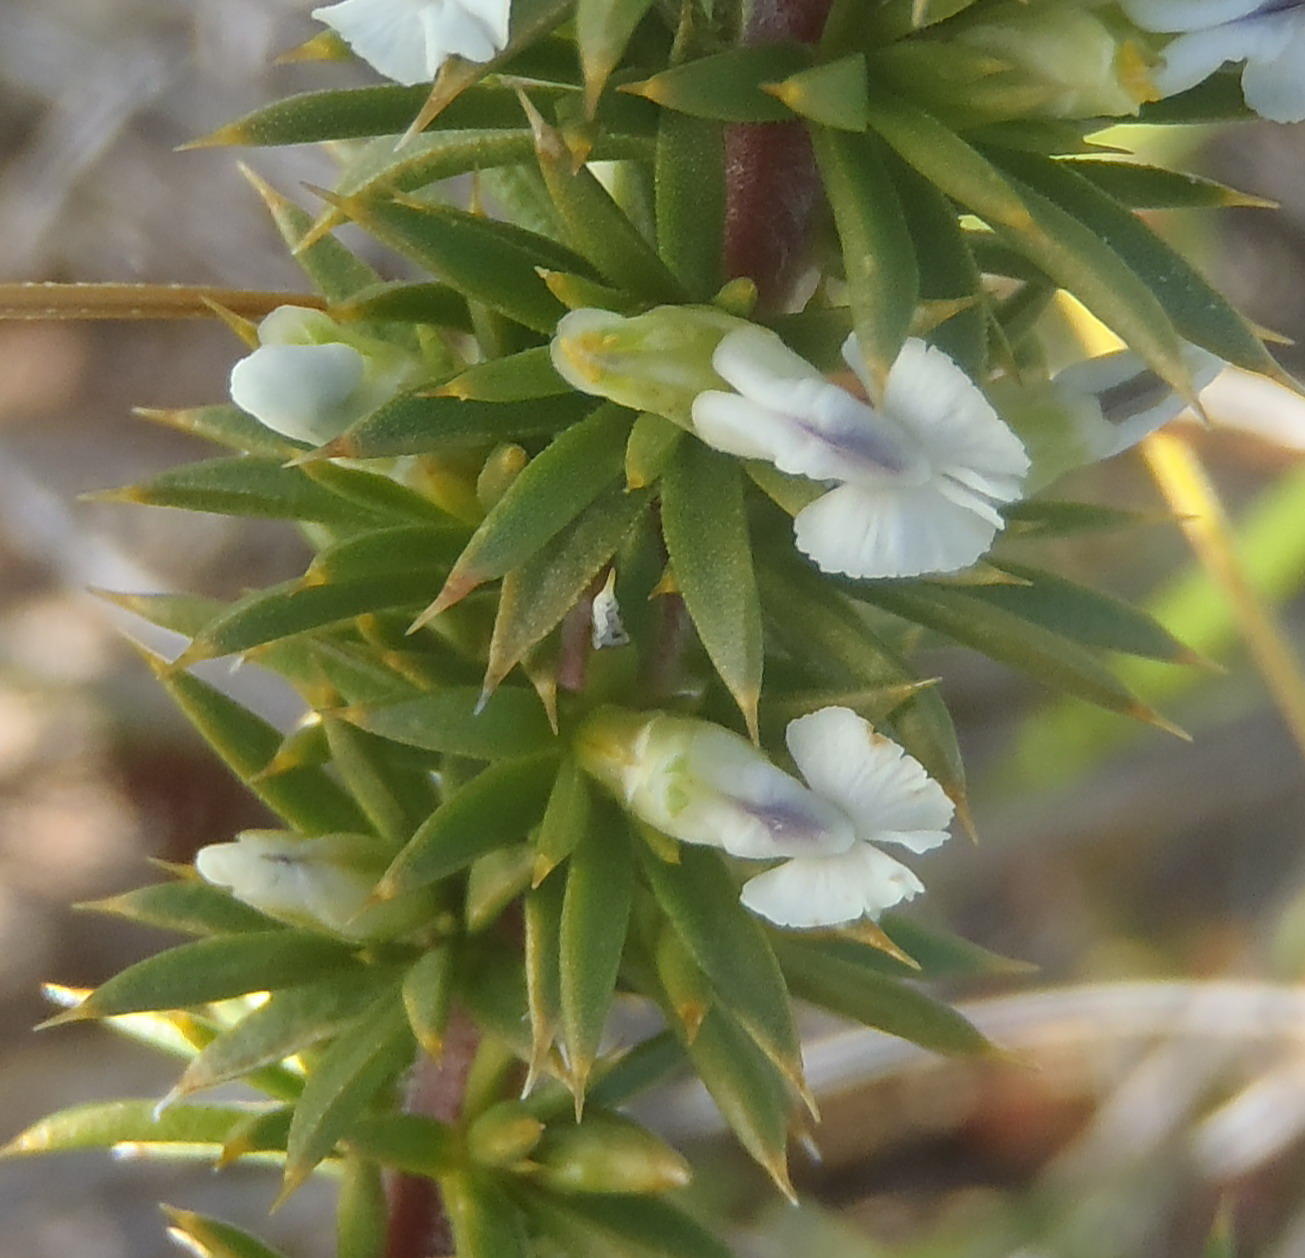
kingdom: Plantae
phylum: Tracheophyta
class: Magnoliopsida
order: Fabales
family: Polygalaceae
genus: Muraltia
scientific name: Muraltia ericifolia
